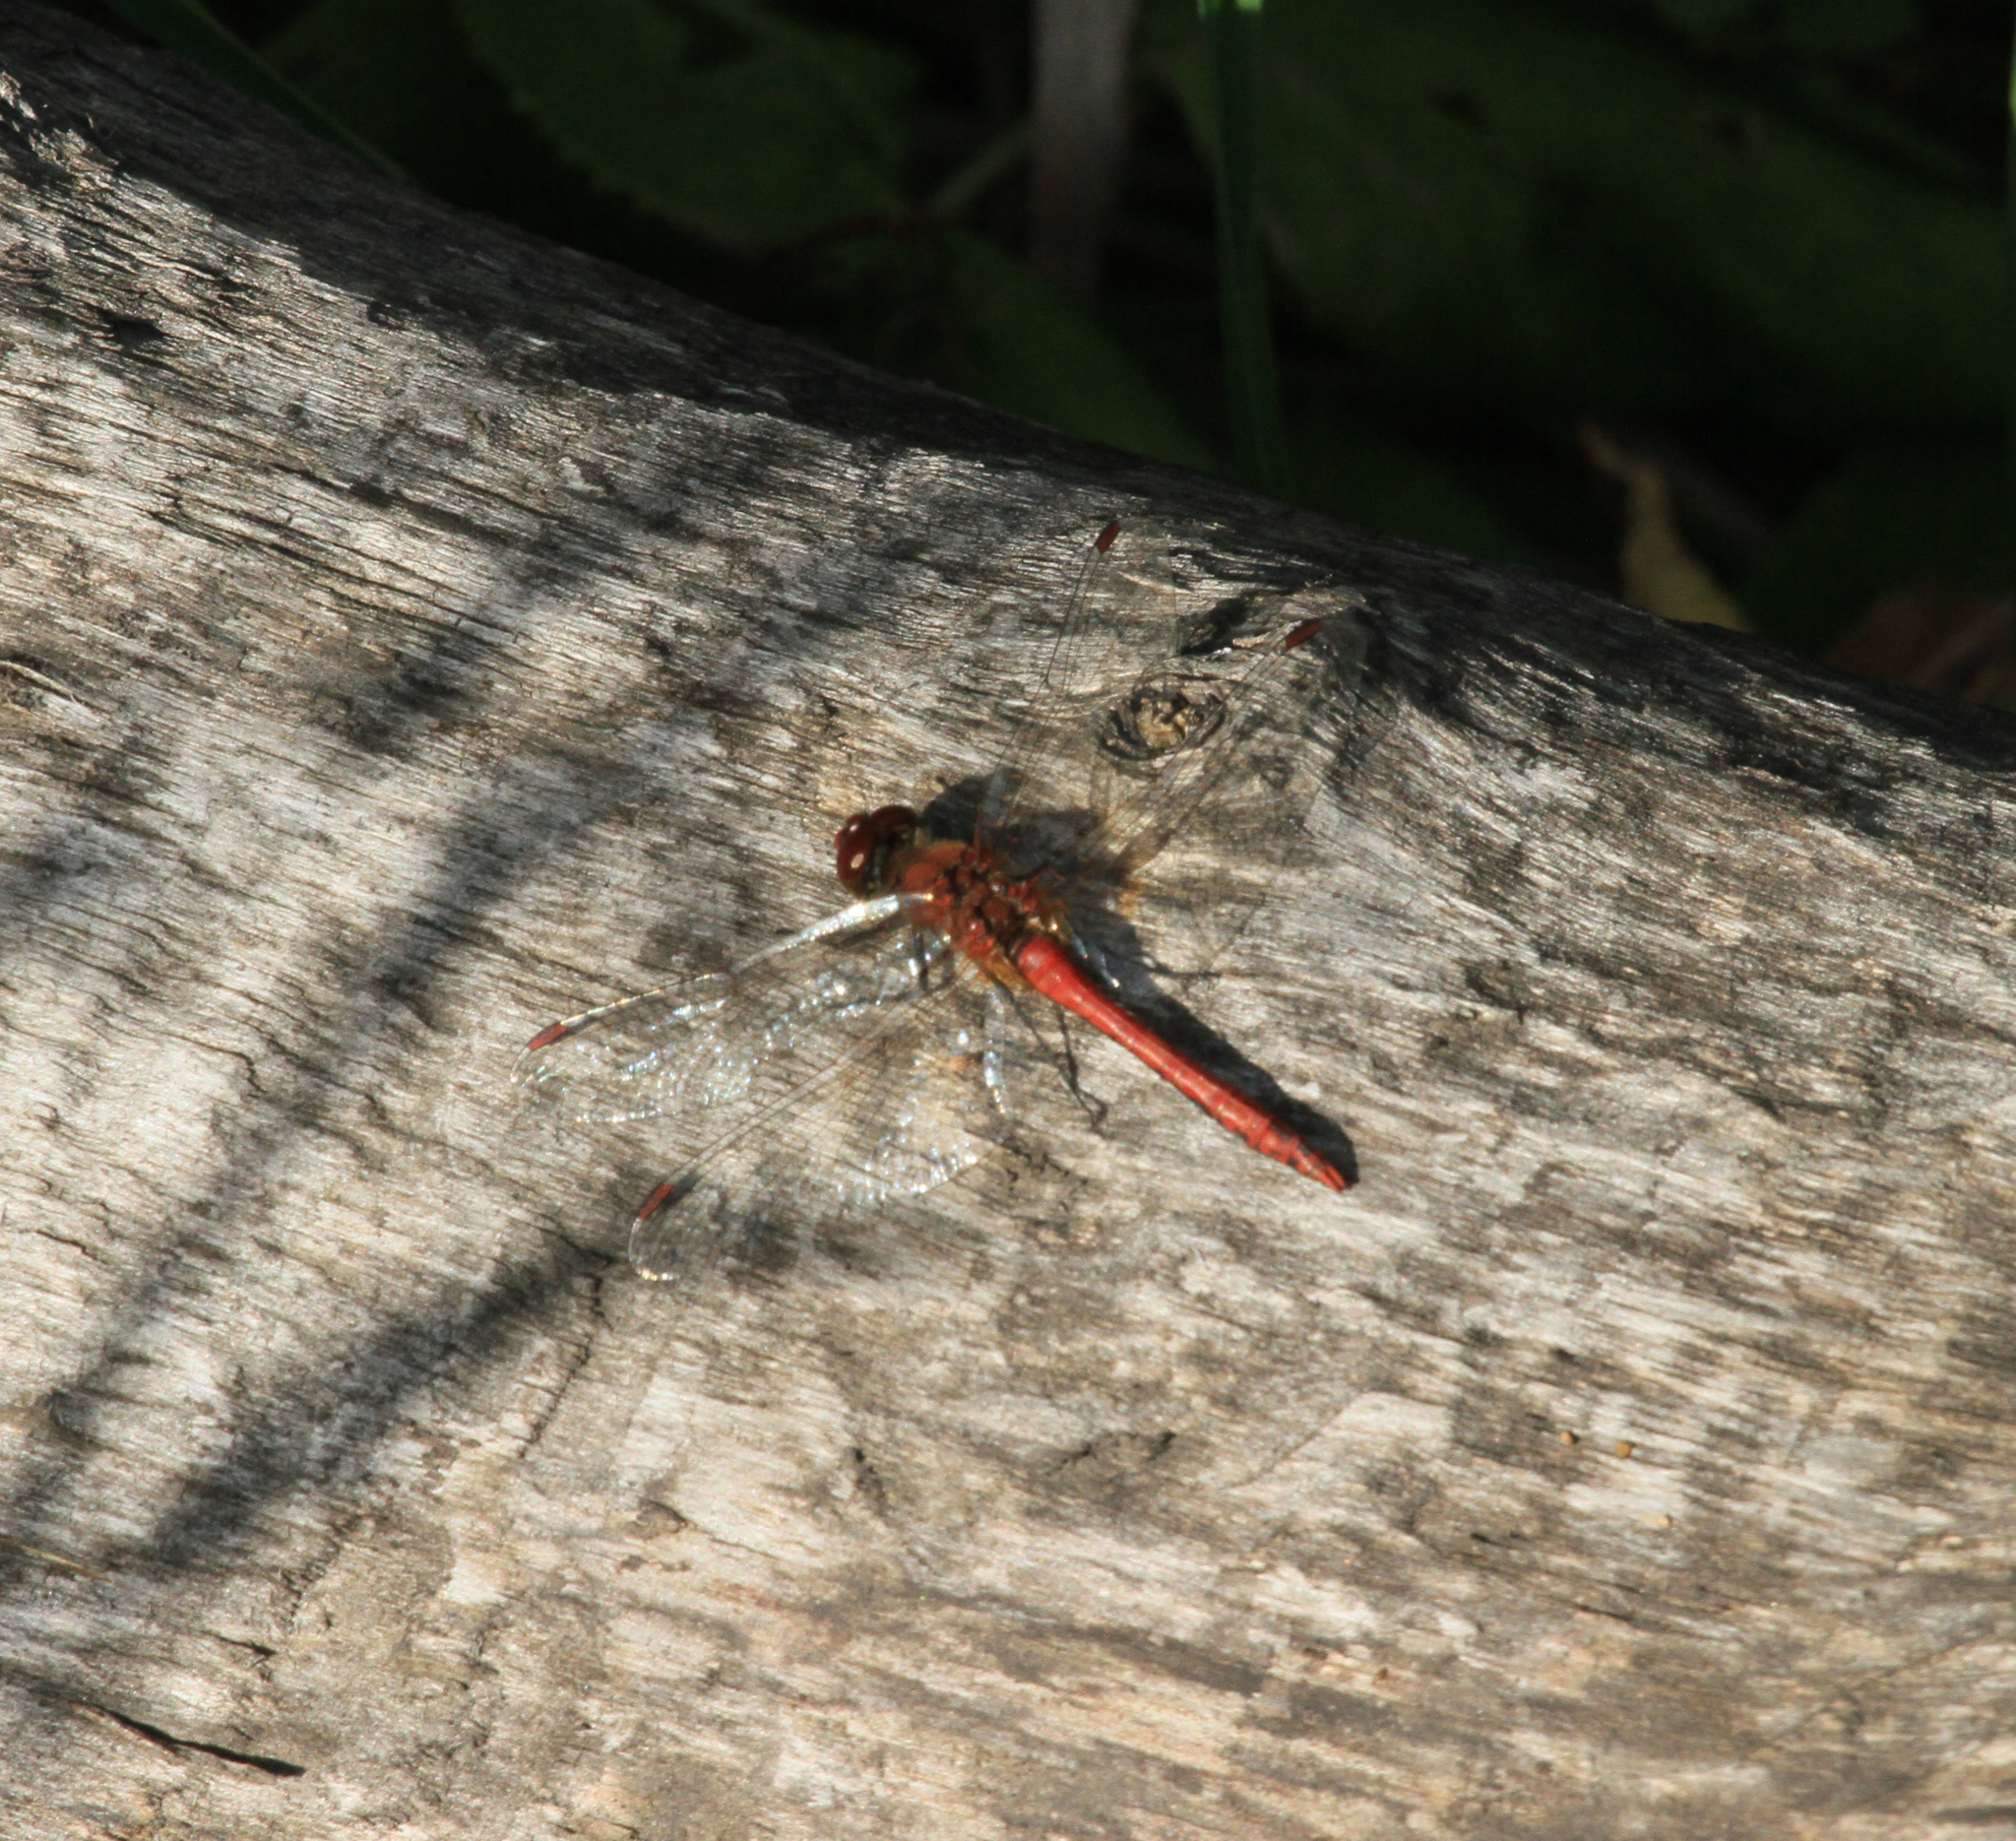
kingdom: Animalia
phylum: Arthropoda
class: Insecta
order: Odonata
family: Libellulidae
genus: Sympetrum
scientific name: Sympetrum sanguineum
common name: Ruddy darter
